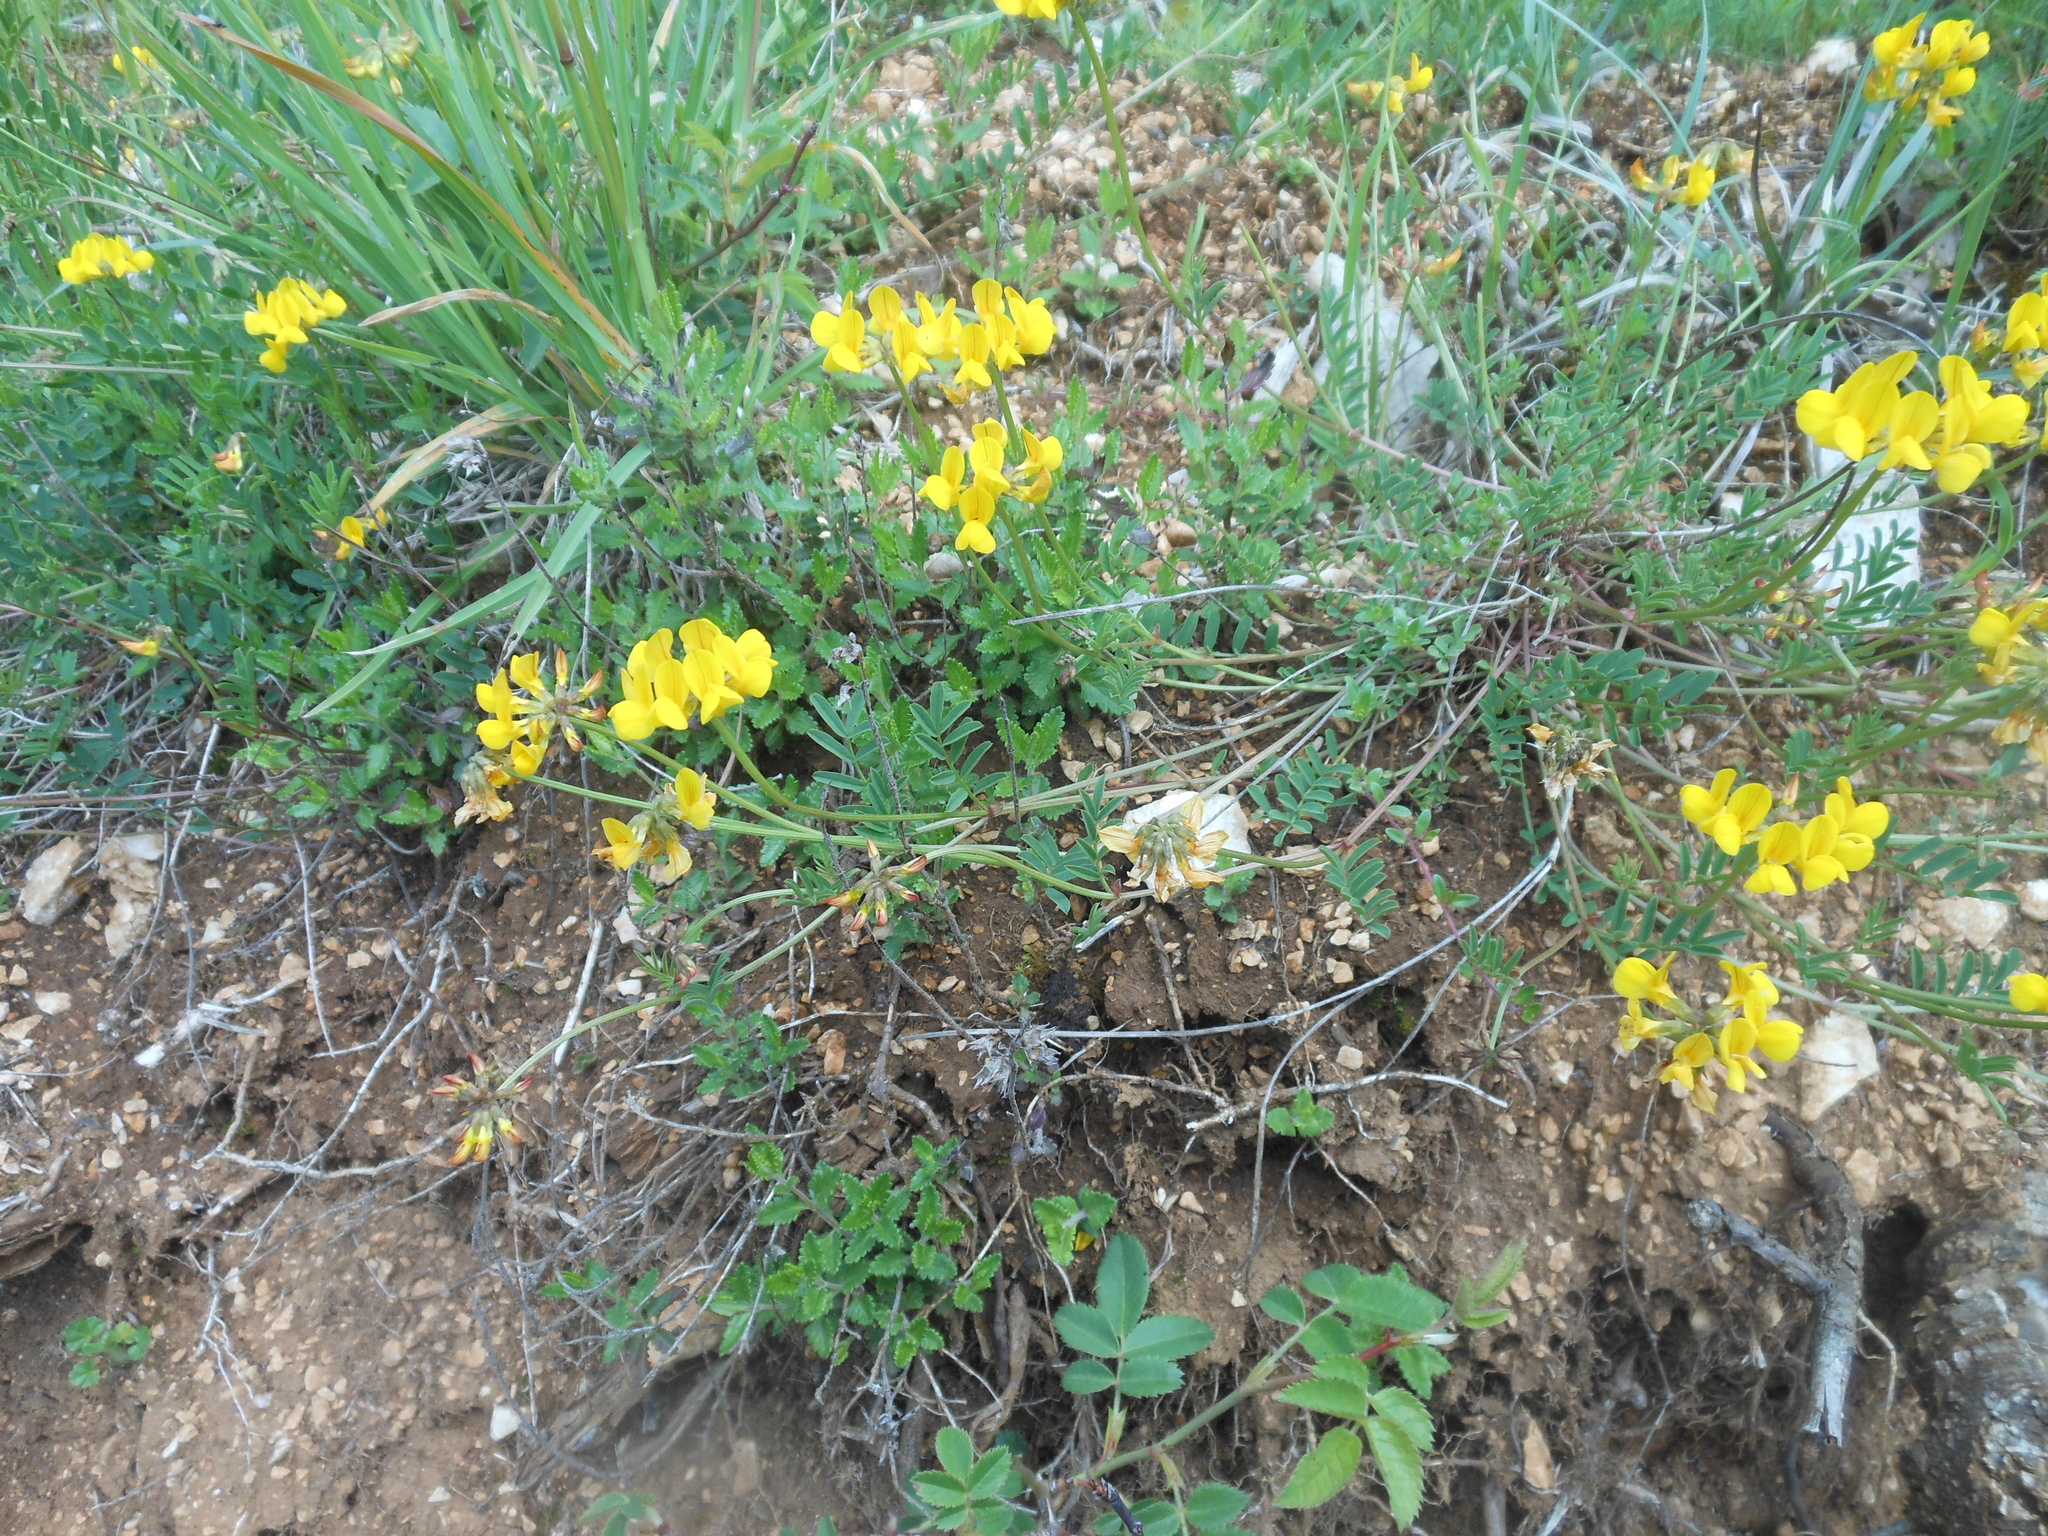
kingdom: Plantae
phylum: Tracheophyta
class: Magnoliopsida
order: Fabales
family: Fabaceae
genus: Hippocrepis
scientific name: Hippocrepis comosa
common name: Horseshoe vetch
